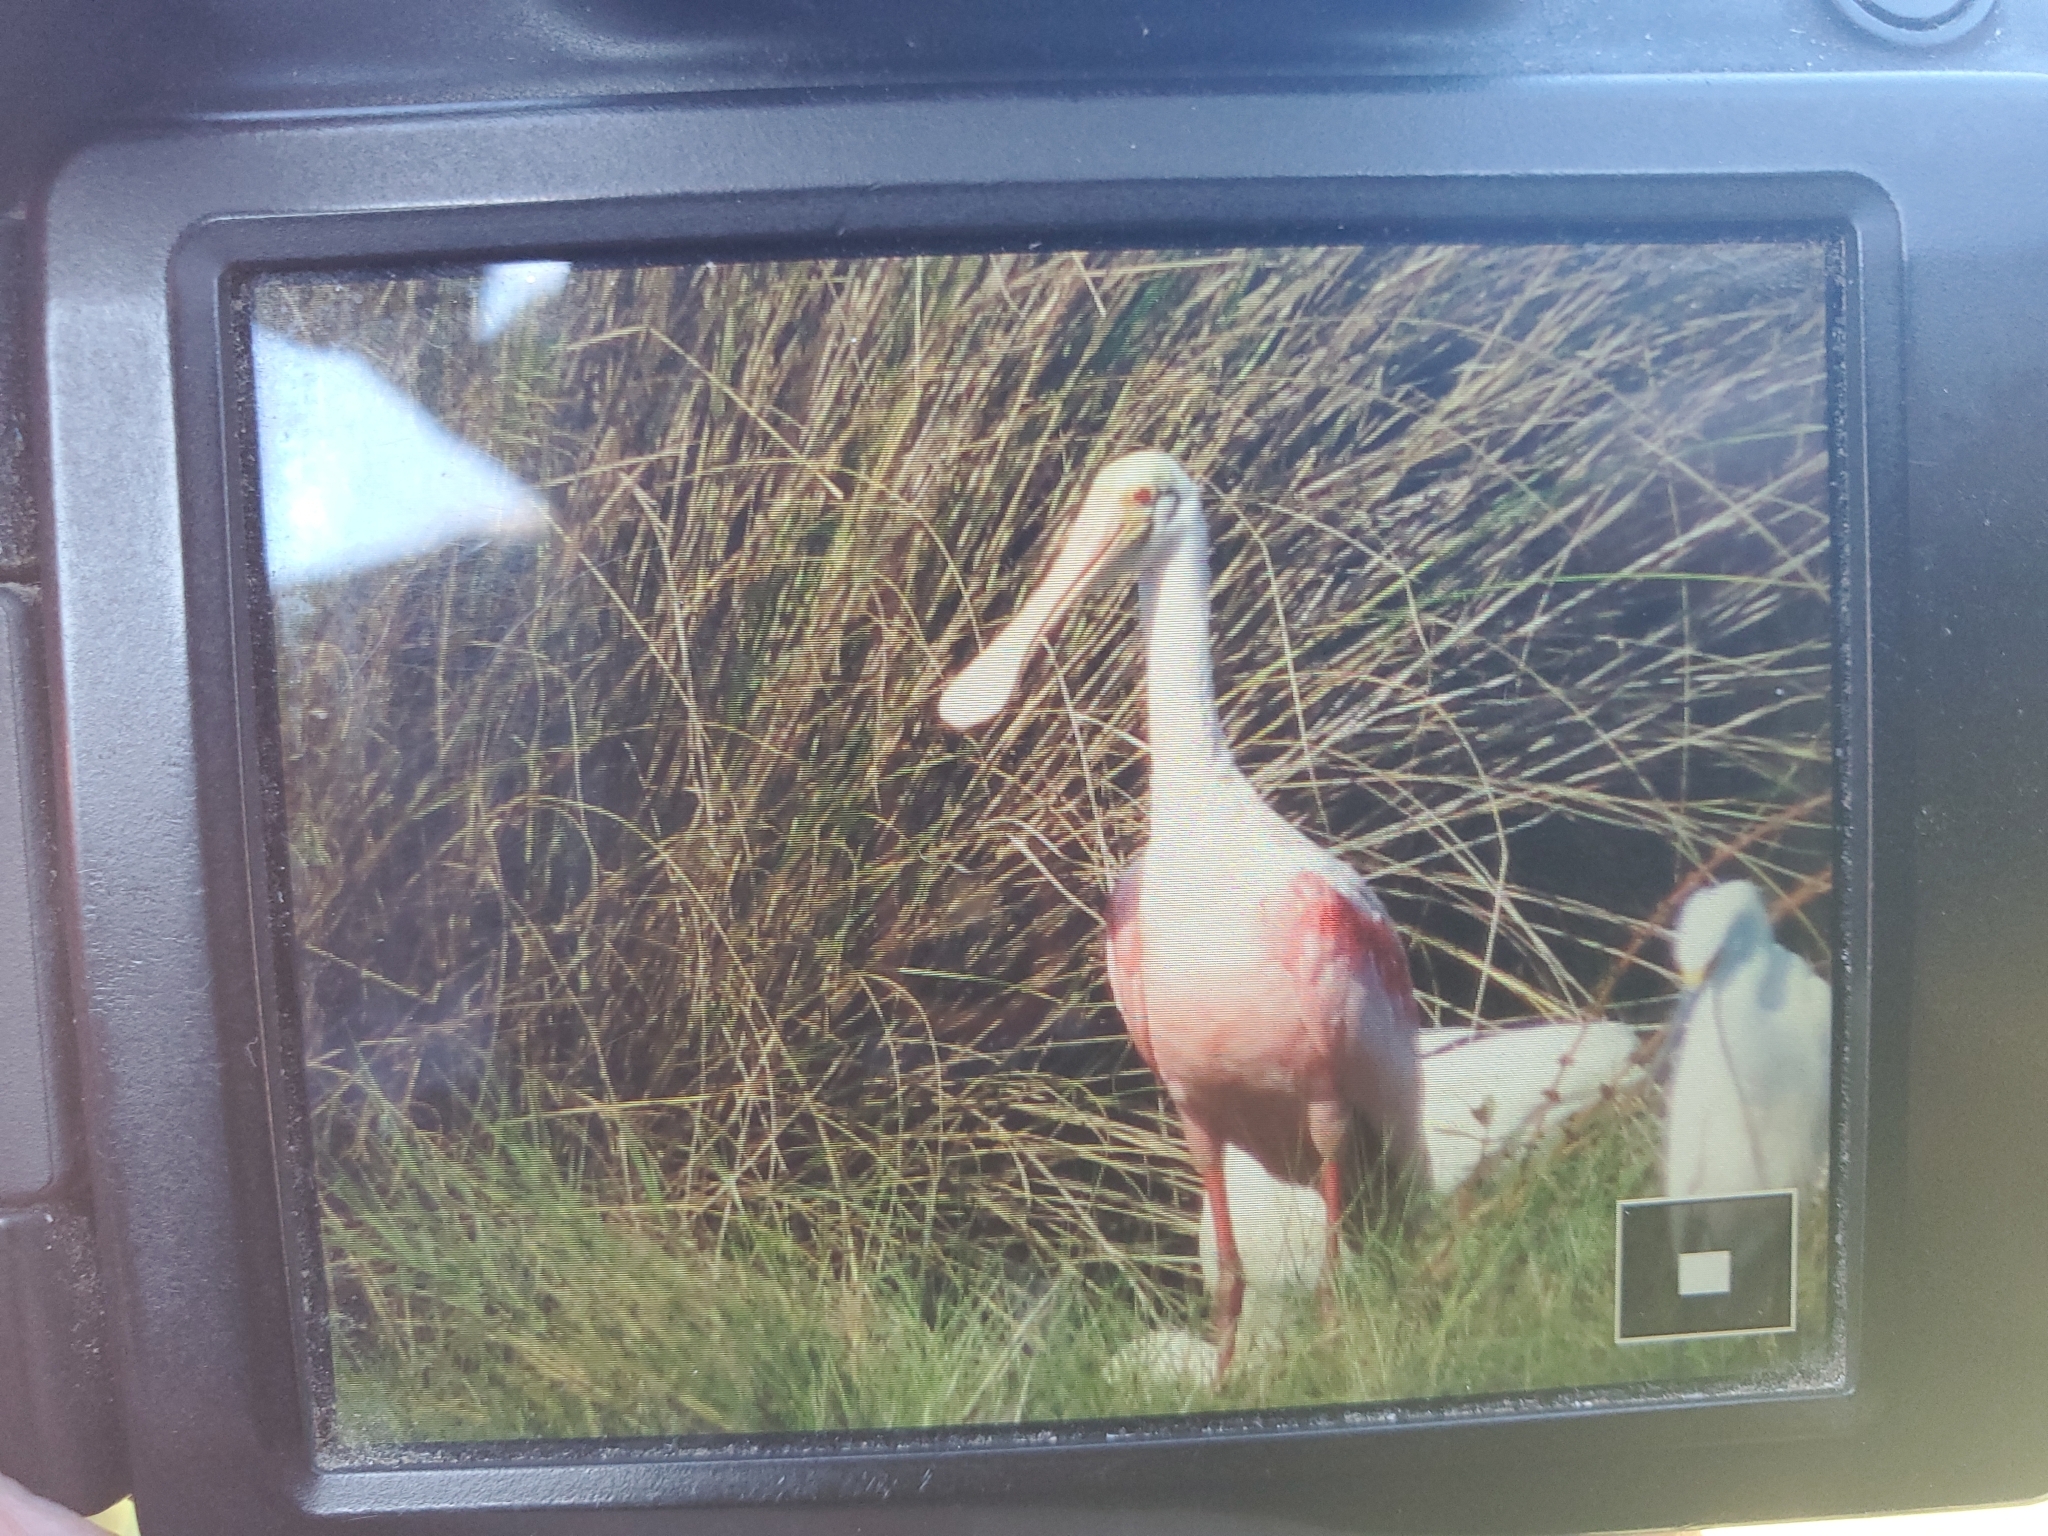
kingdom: Animalia
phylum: Chordata
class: Aves
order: Pelecaniformes
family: Threskiornithidae
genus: Platalea
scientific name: Platalea ajaja
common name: Roseate spoonbill
